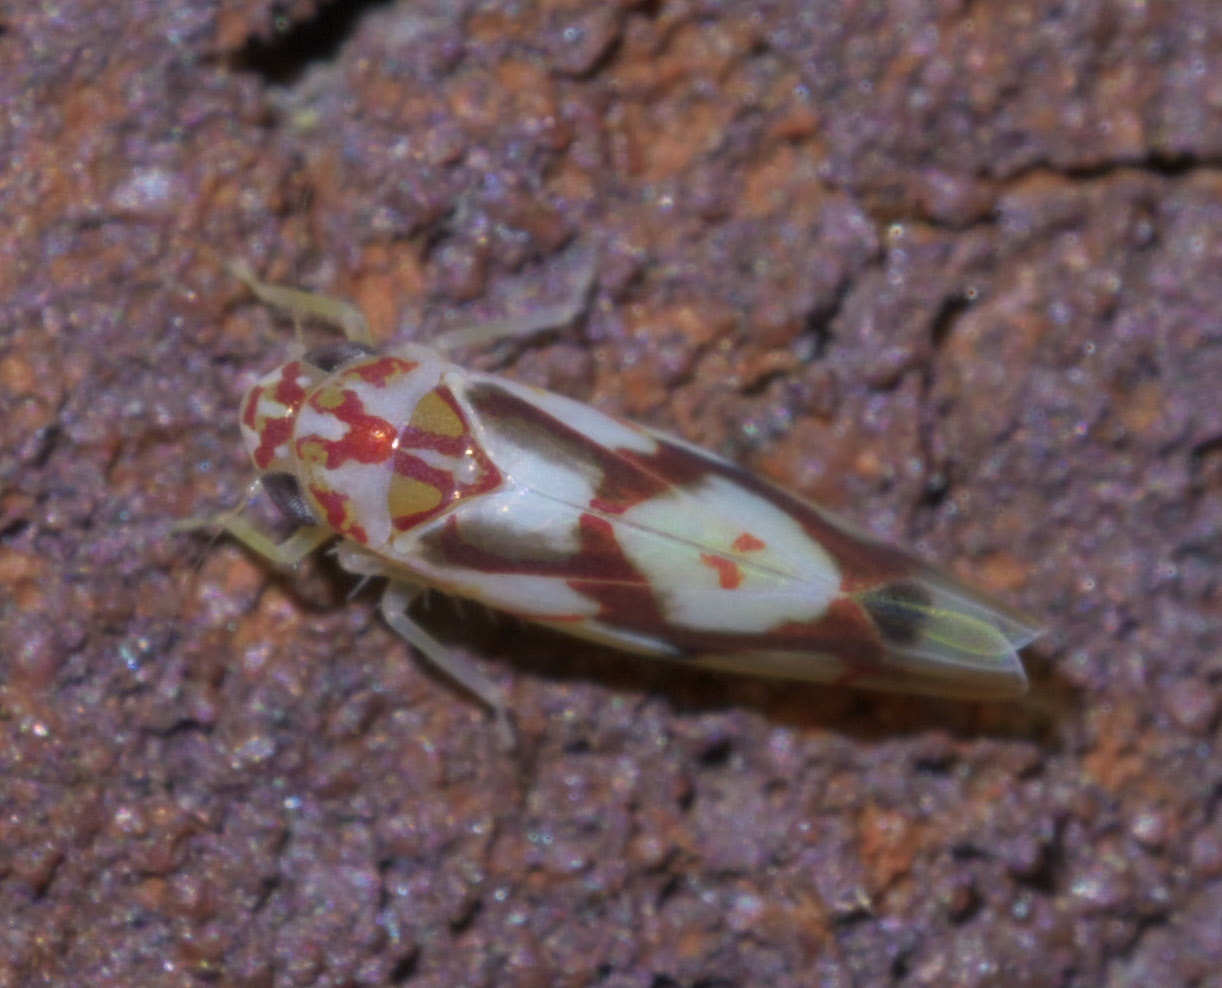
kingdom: Animalia
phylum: Arthropoda
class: Insecta
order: Hemiptera
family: Cicadellidae
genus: Eratoneura
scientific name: Eratoneura ligata
